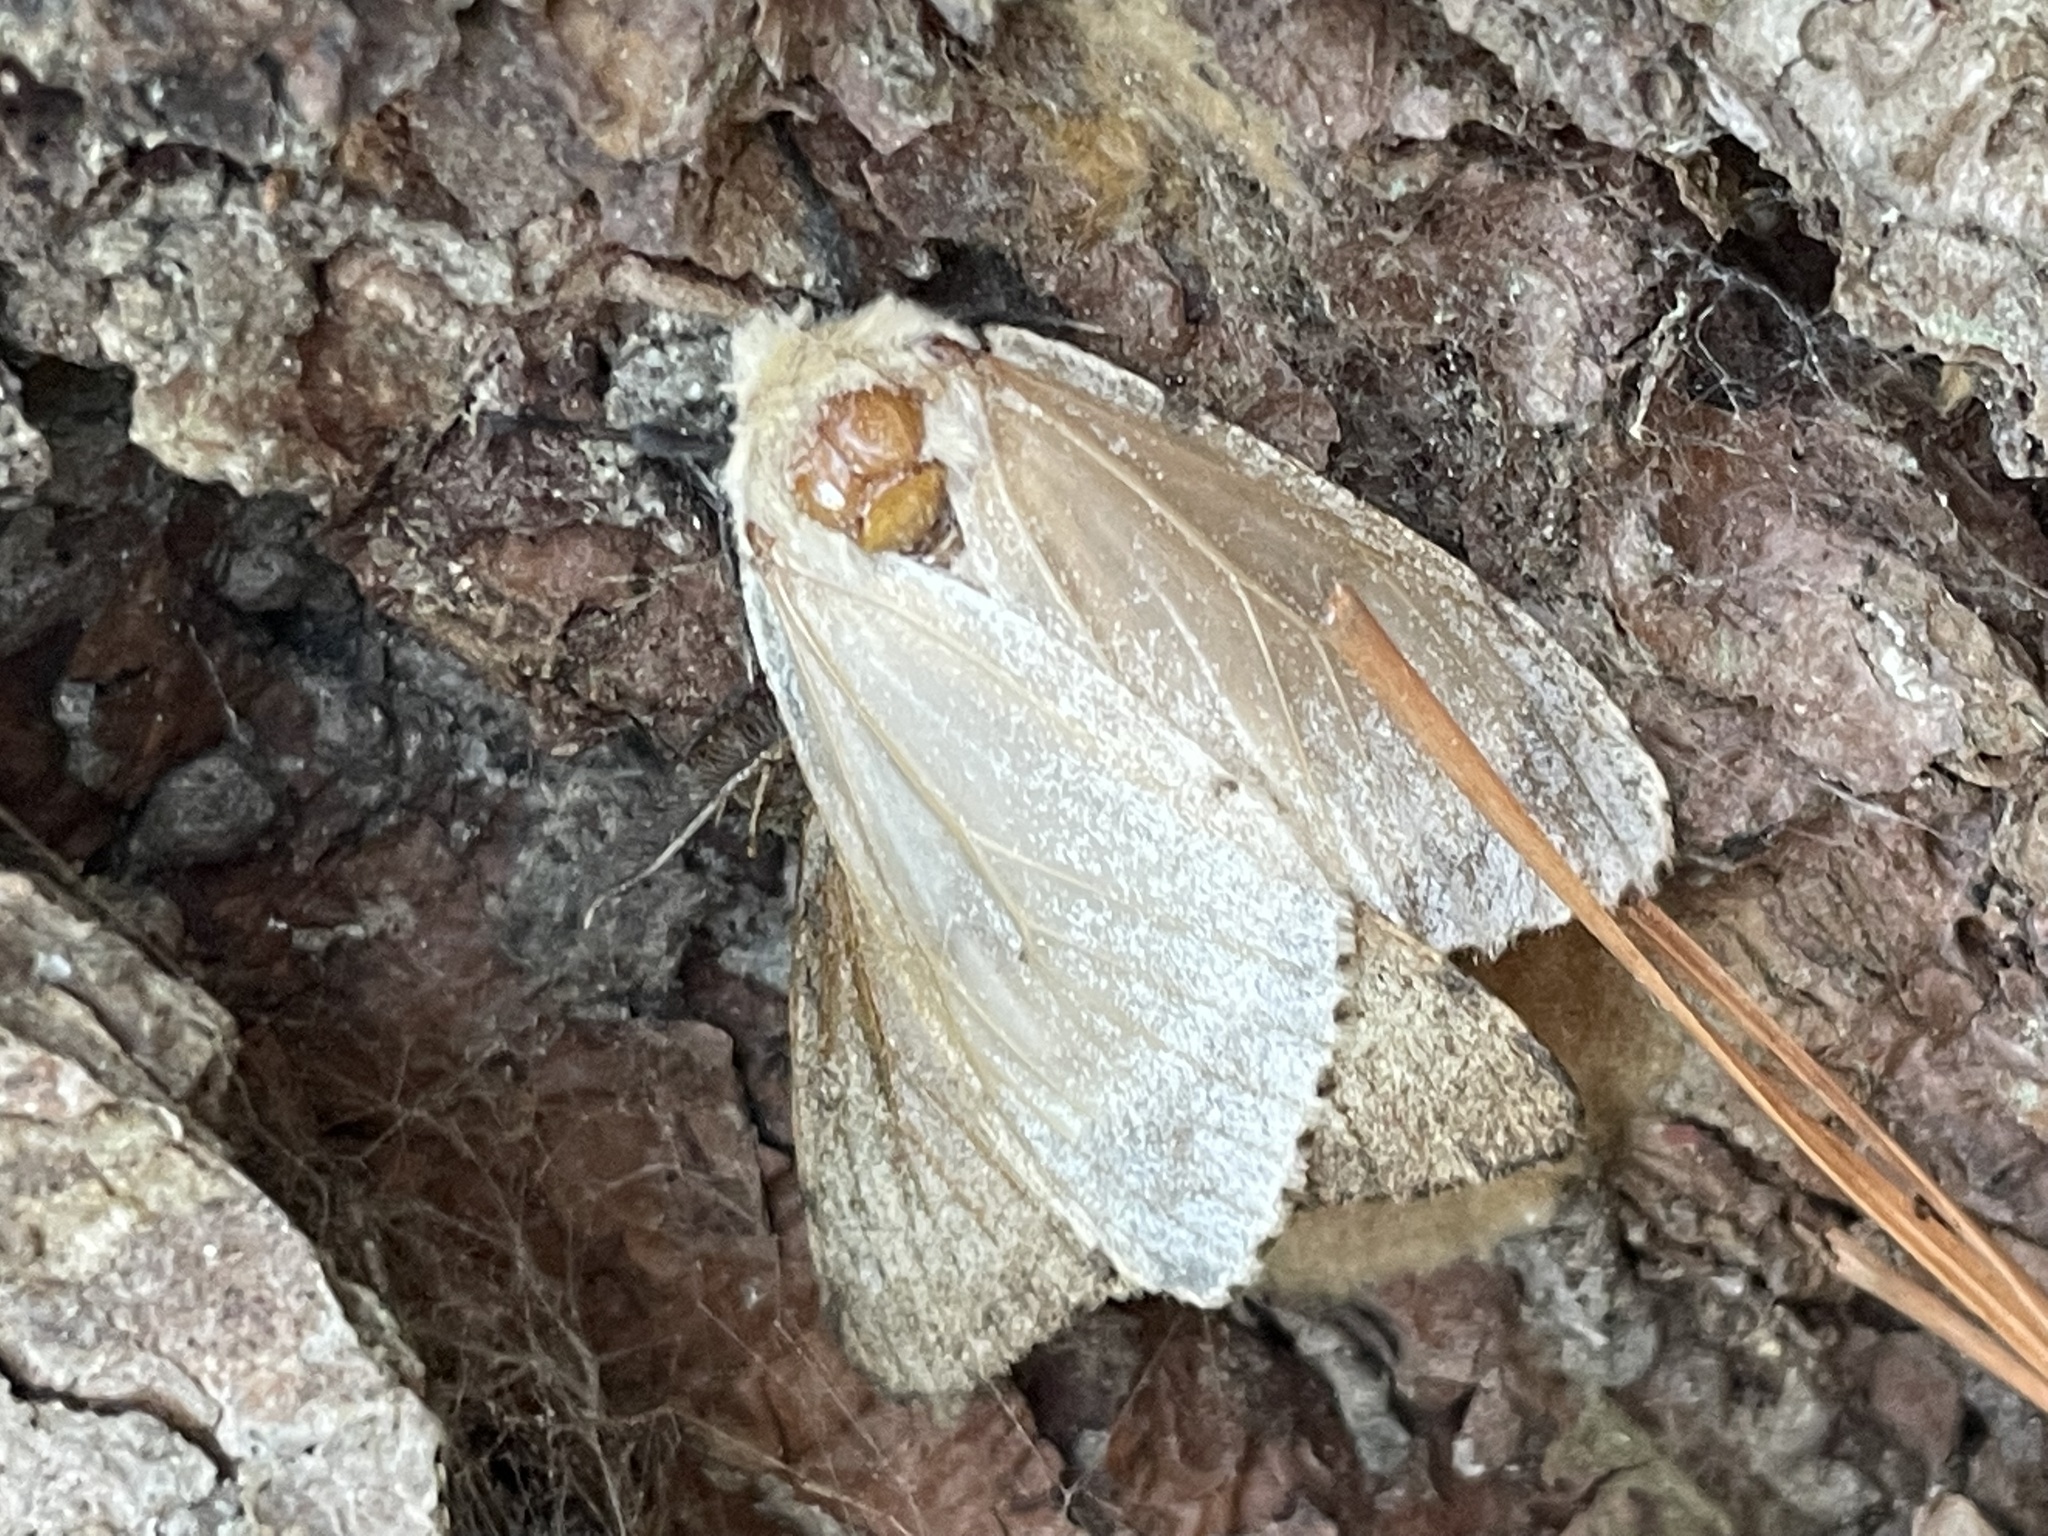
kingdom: Animalia
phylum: Arthropoda
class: Insecta
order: Lepidoptera
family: Erebidae
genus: Lymantria
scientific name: Lymantria dispar
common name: Gypsy moth
